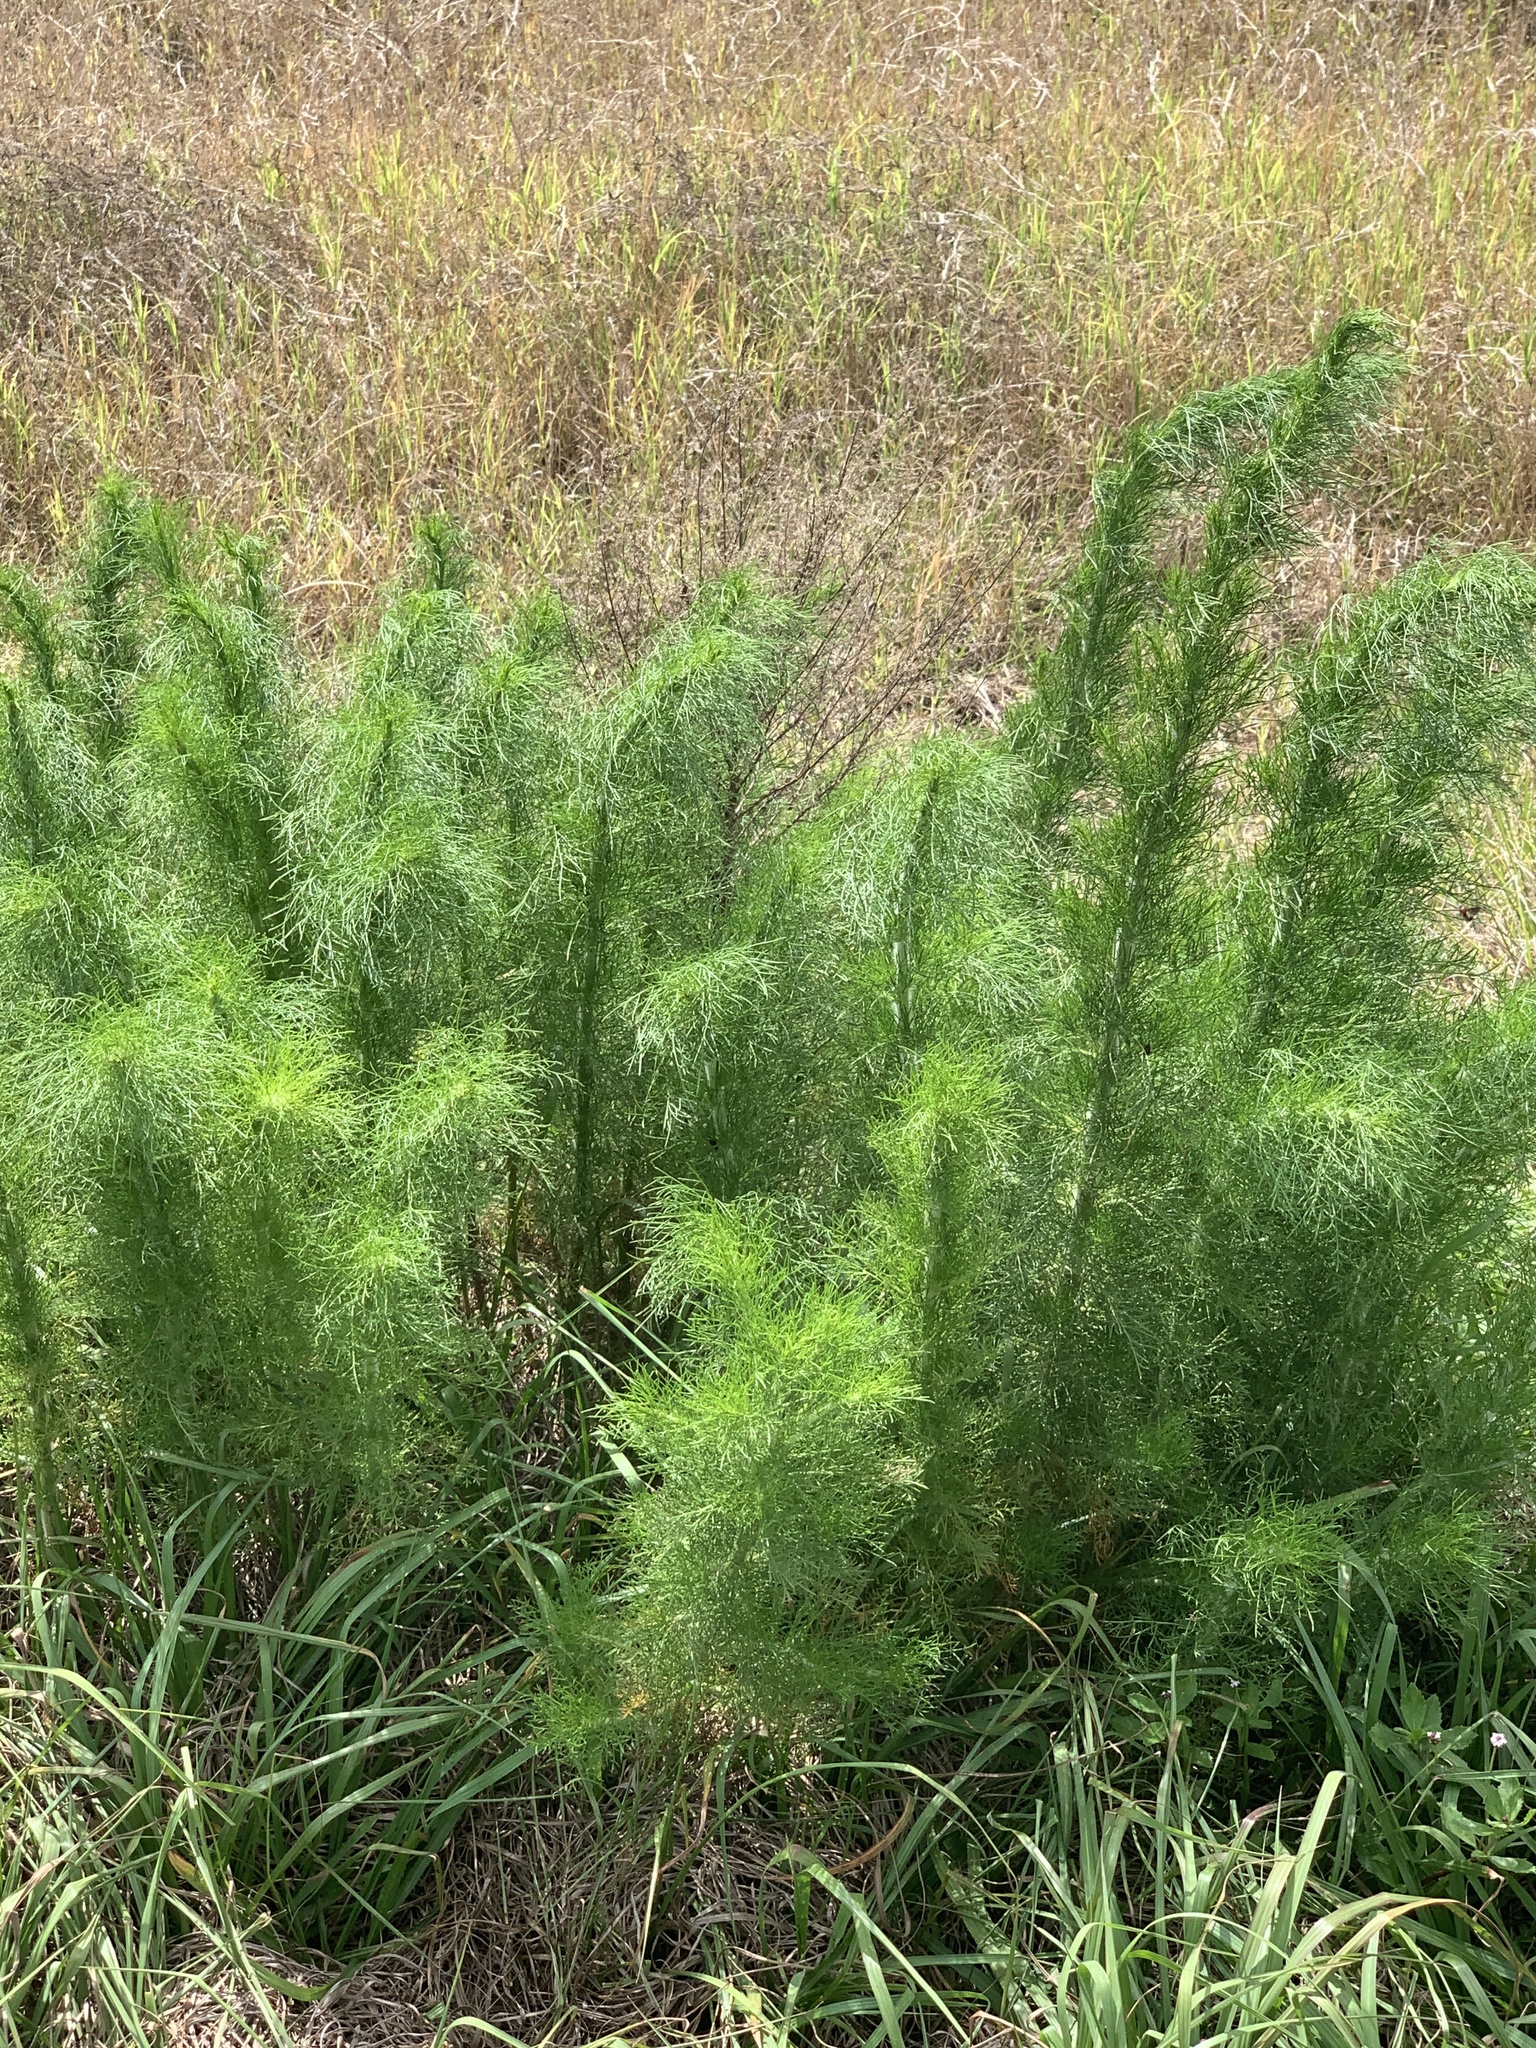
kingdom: Plantae
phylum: Tracheophyta
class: Magnoliopsida
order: Asterales
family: Asteraceae
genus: Eupatorium
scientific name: Eupatorium capillifolium
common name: Dog-fennel
